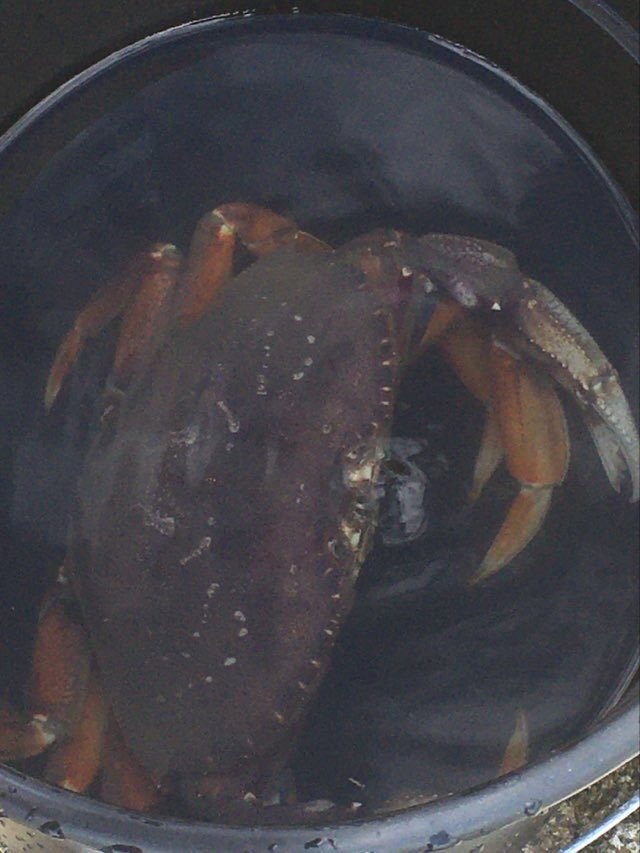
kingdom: Animalia
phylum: Arthropoda
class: Malacostraca
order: Decapoda
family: Cancridae
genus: Metacarcinus
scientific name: Metacarcinus magister
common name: Californian crab
